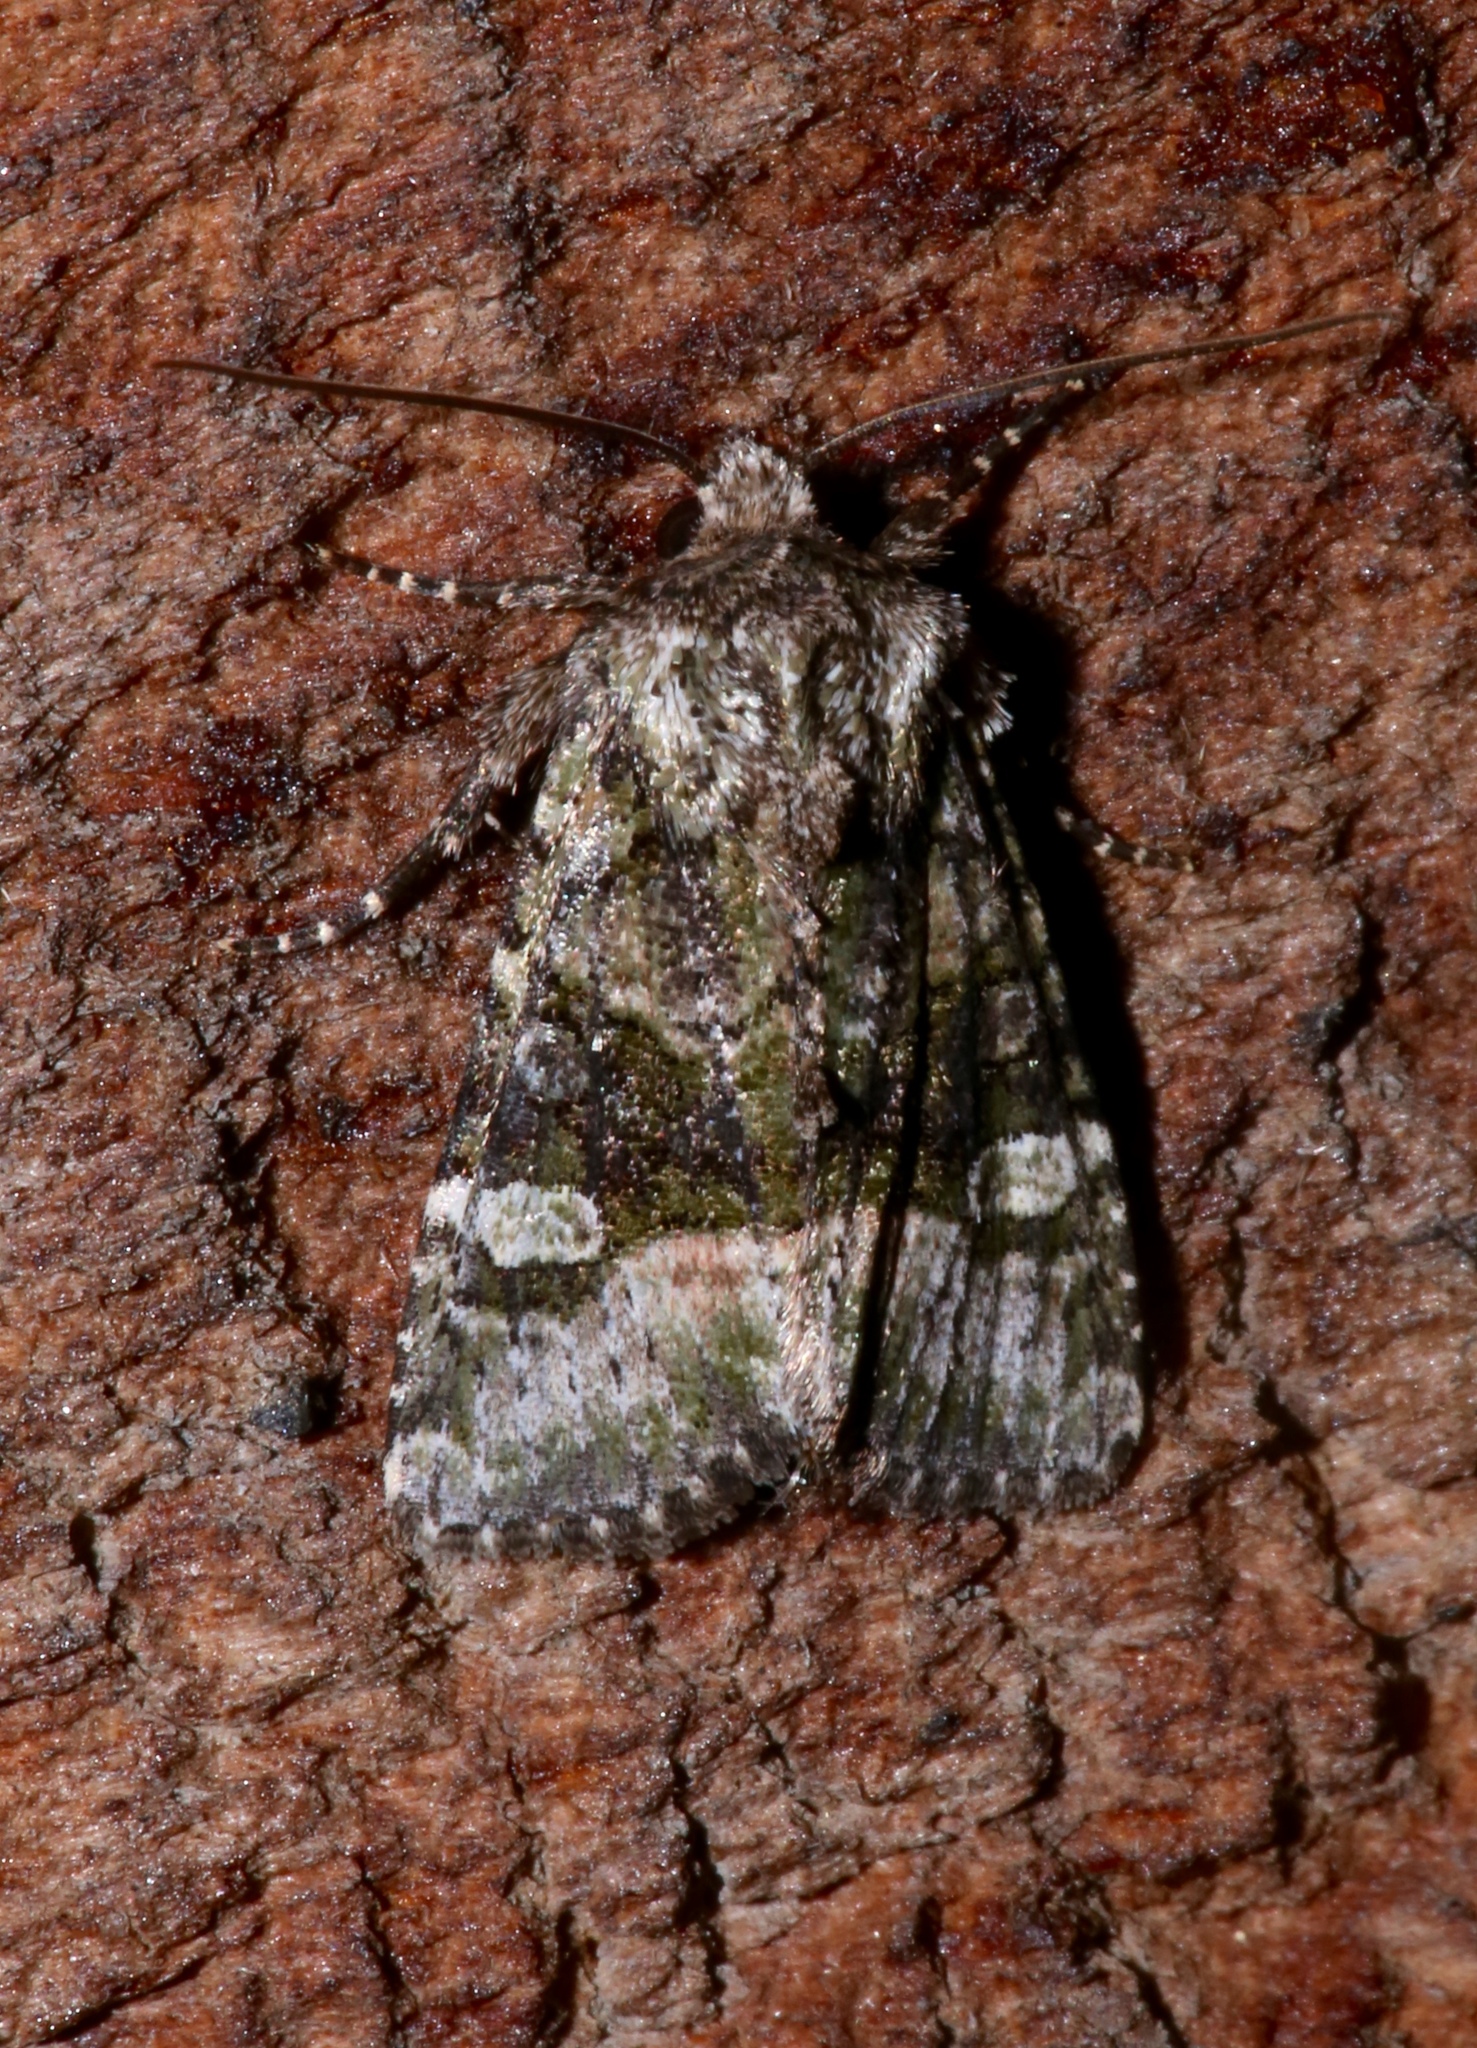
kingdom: Animalia
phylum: Arthropoda
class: Insecta
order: Lepidoptera
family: Noctuidae
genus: Lacinipolia
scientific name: Lacinipolia olivacea
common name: Olive arches moth
